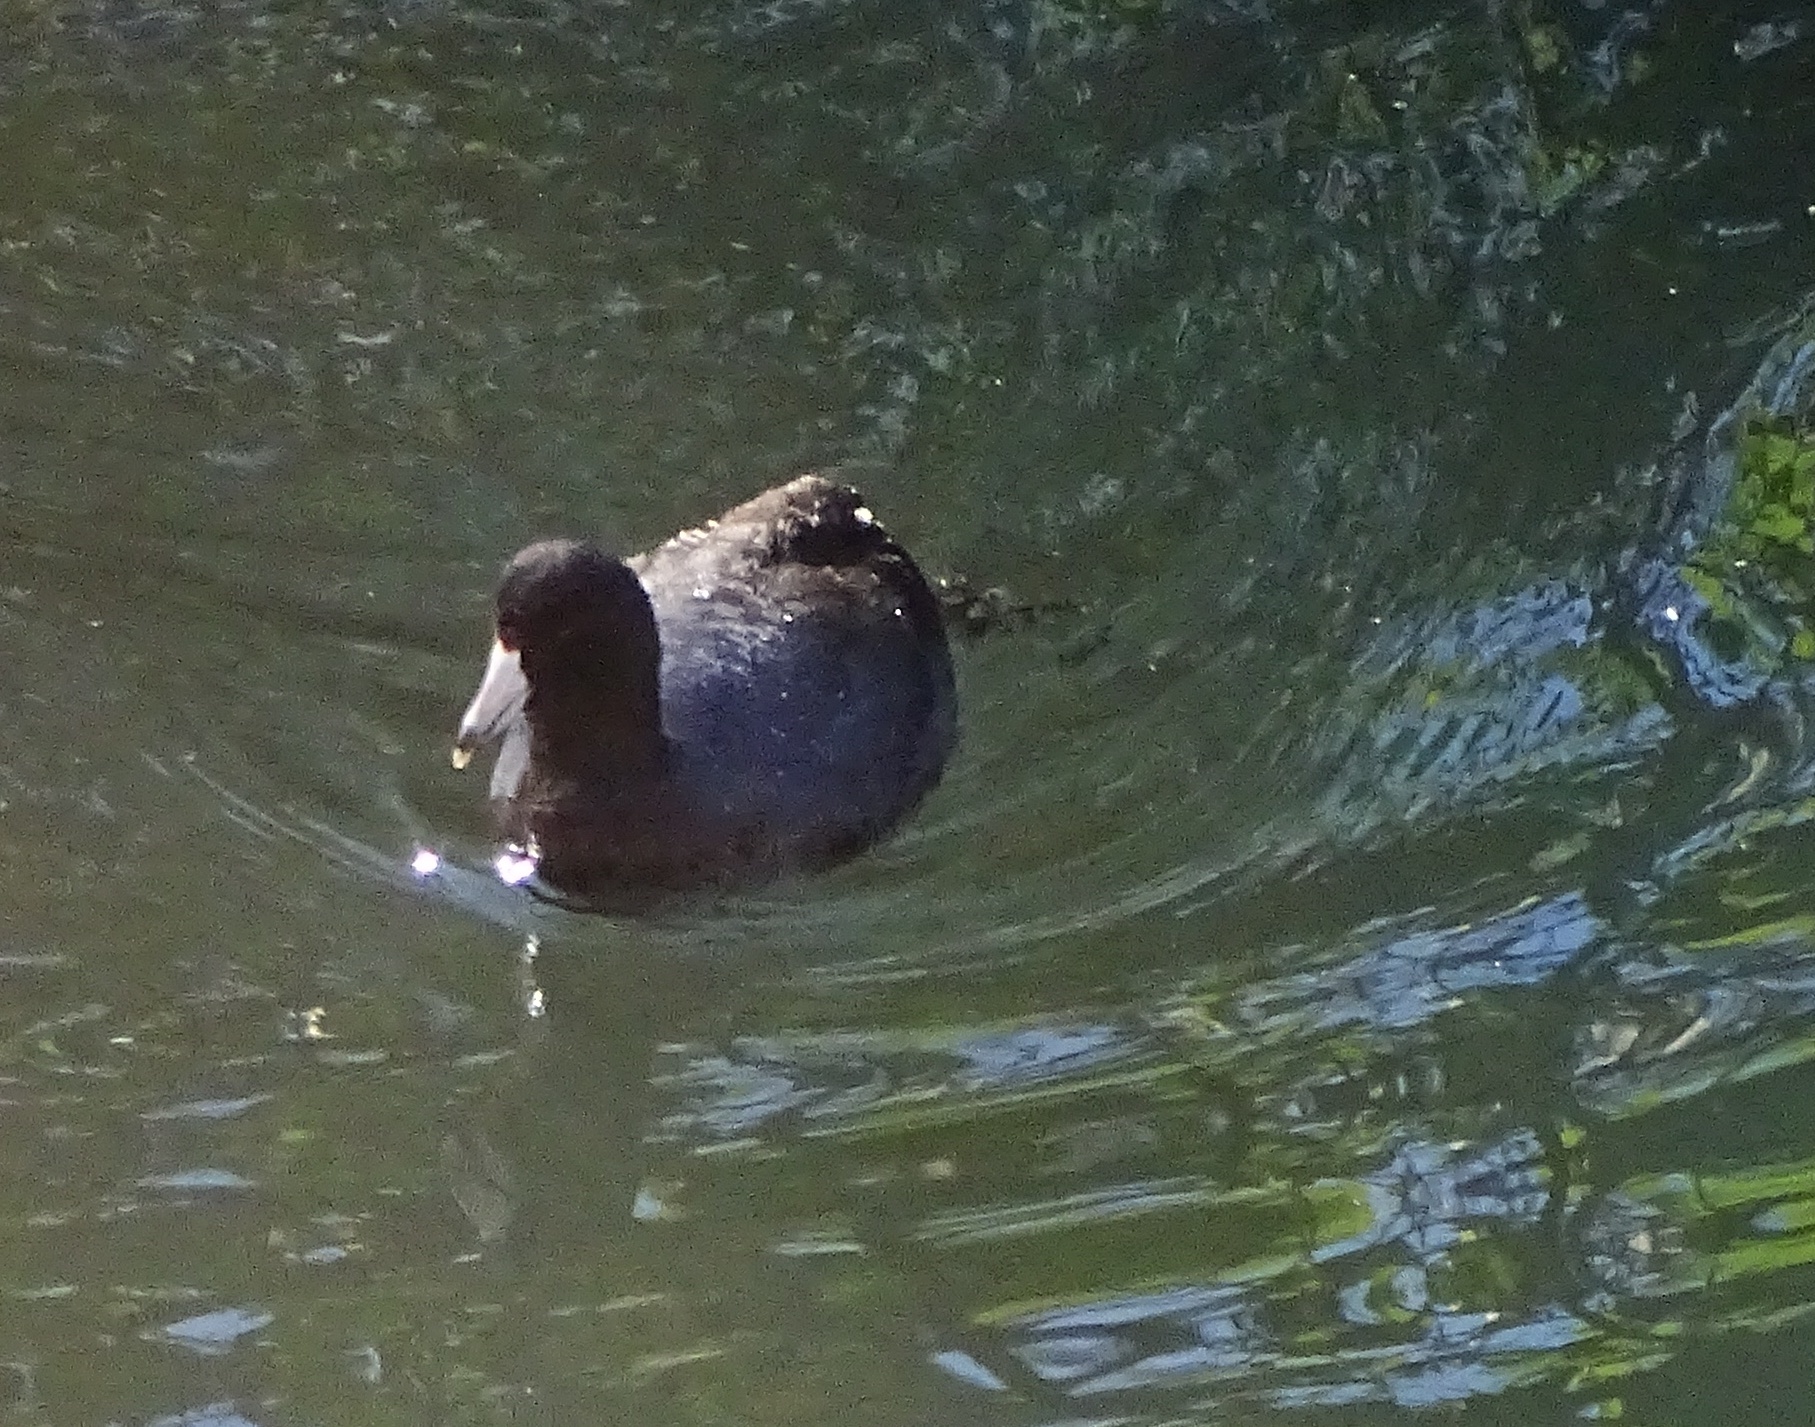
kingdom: Animalia
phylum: Chordata
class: Aves
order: Gruiformes
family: Rallidae
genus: Fulica
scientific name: Fulica americana
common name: American coot
